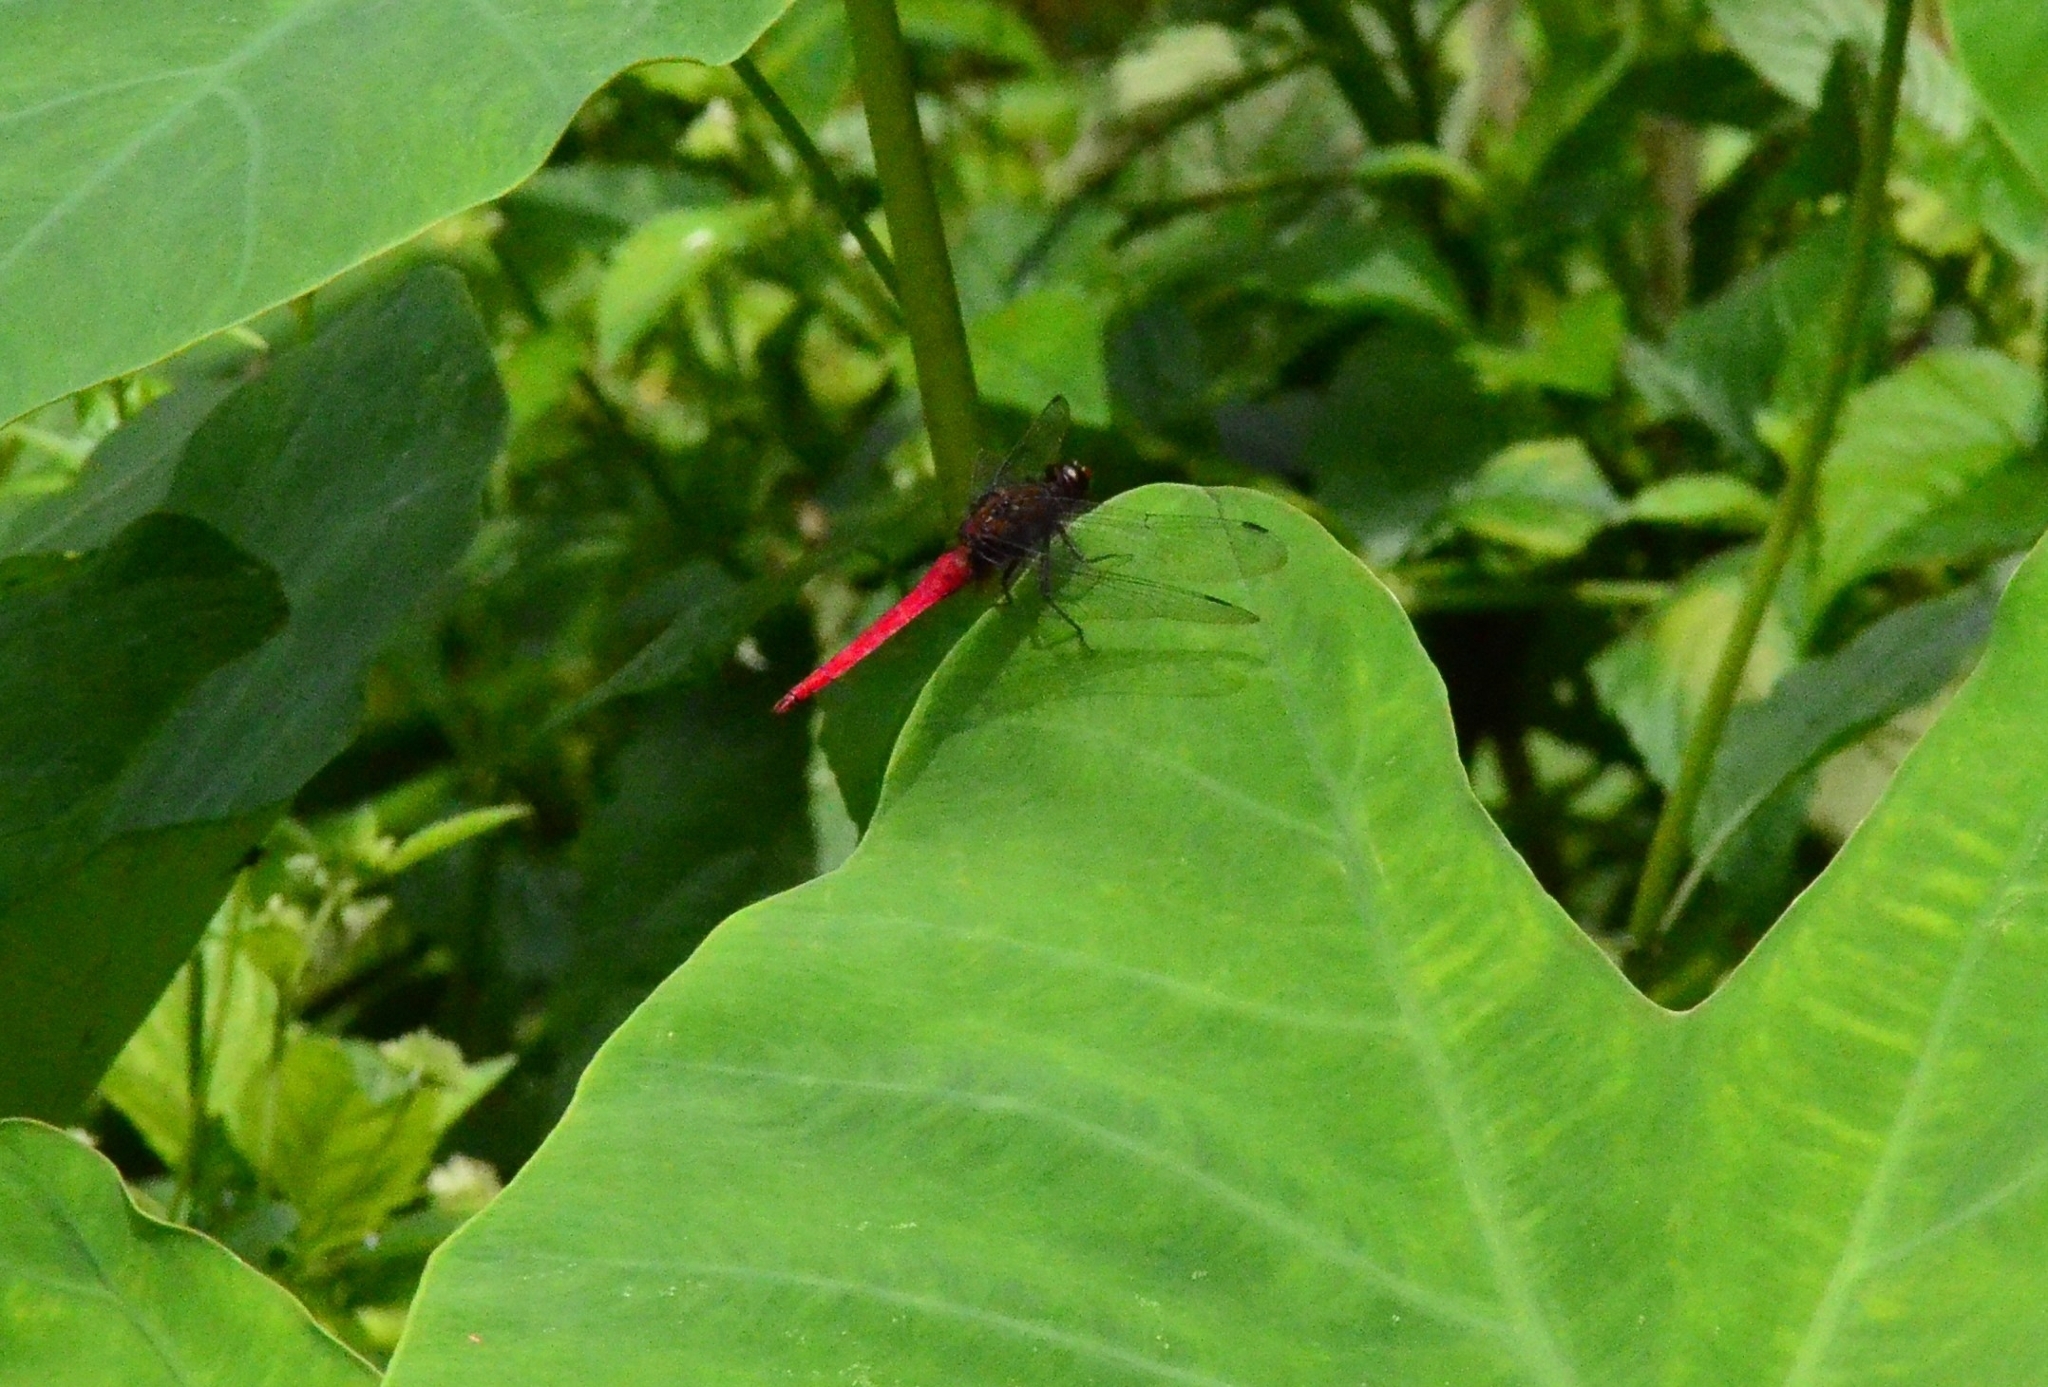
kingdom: Animalia
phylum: Arthropoda
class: Insecta
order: Odonata
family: Libellulidae
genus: Orthetrum
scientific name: Orthetrum chrysis
